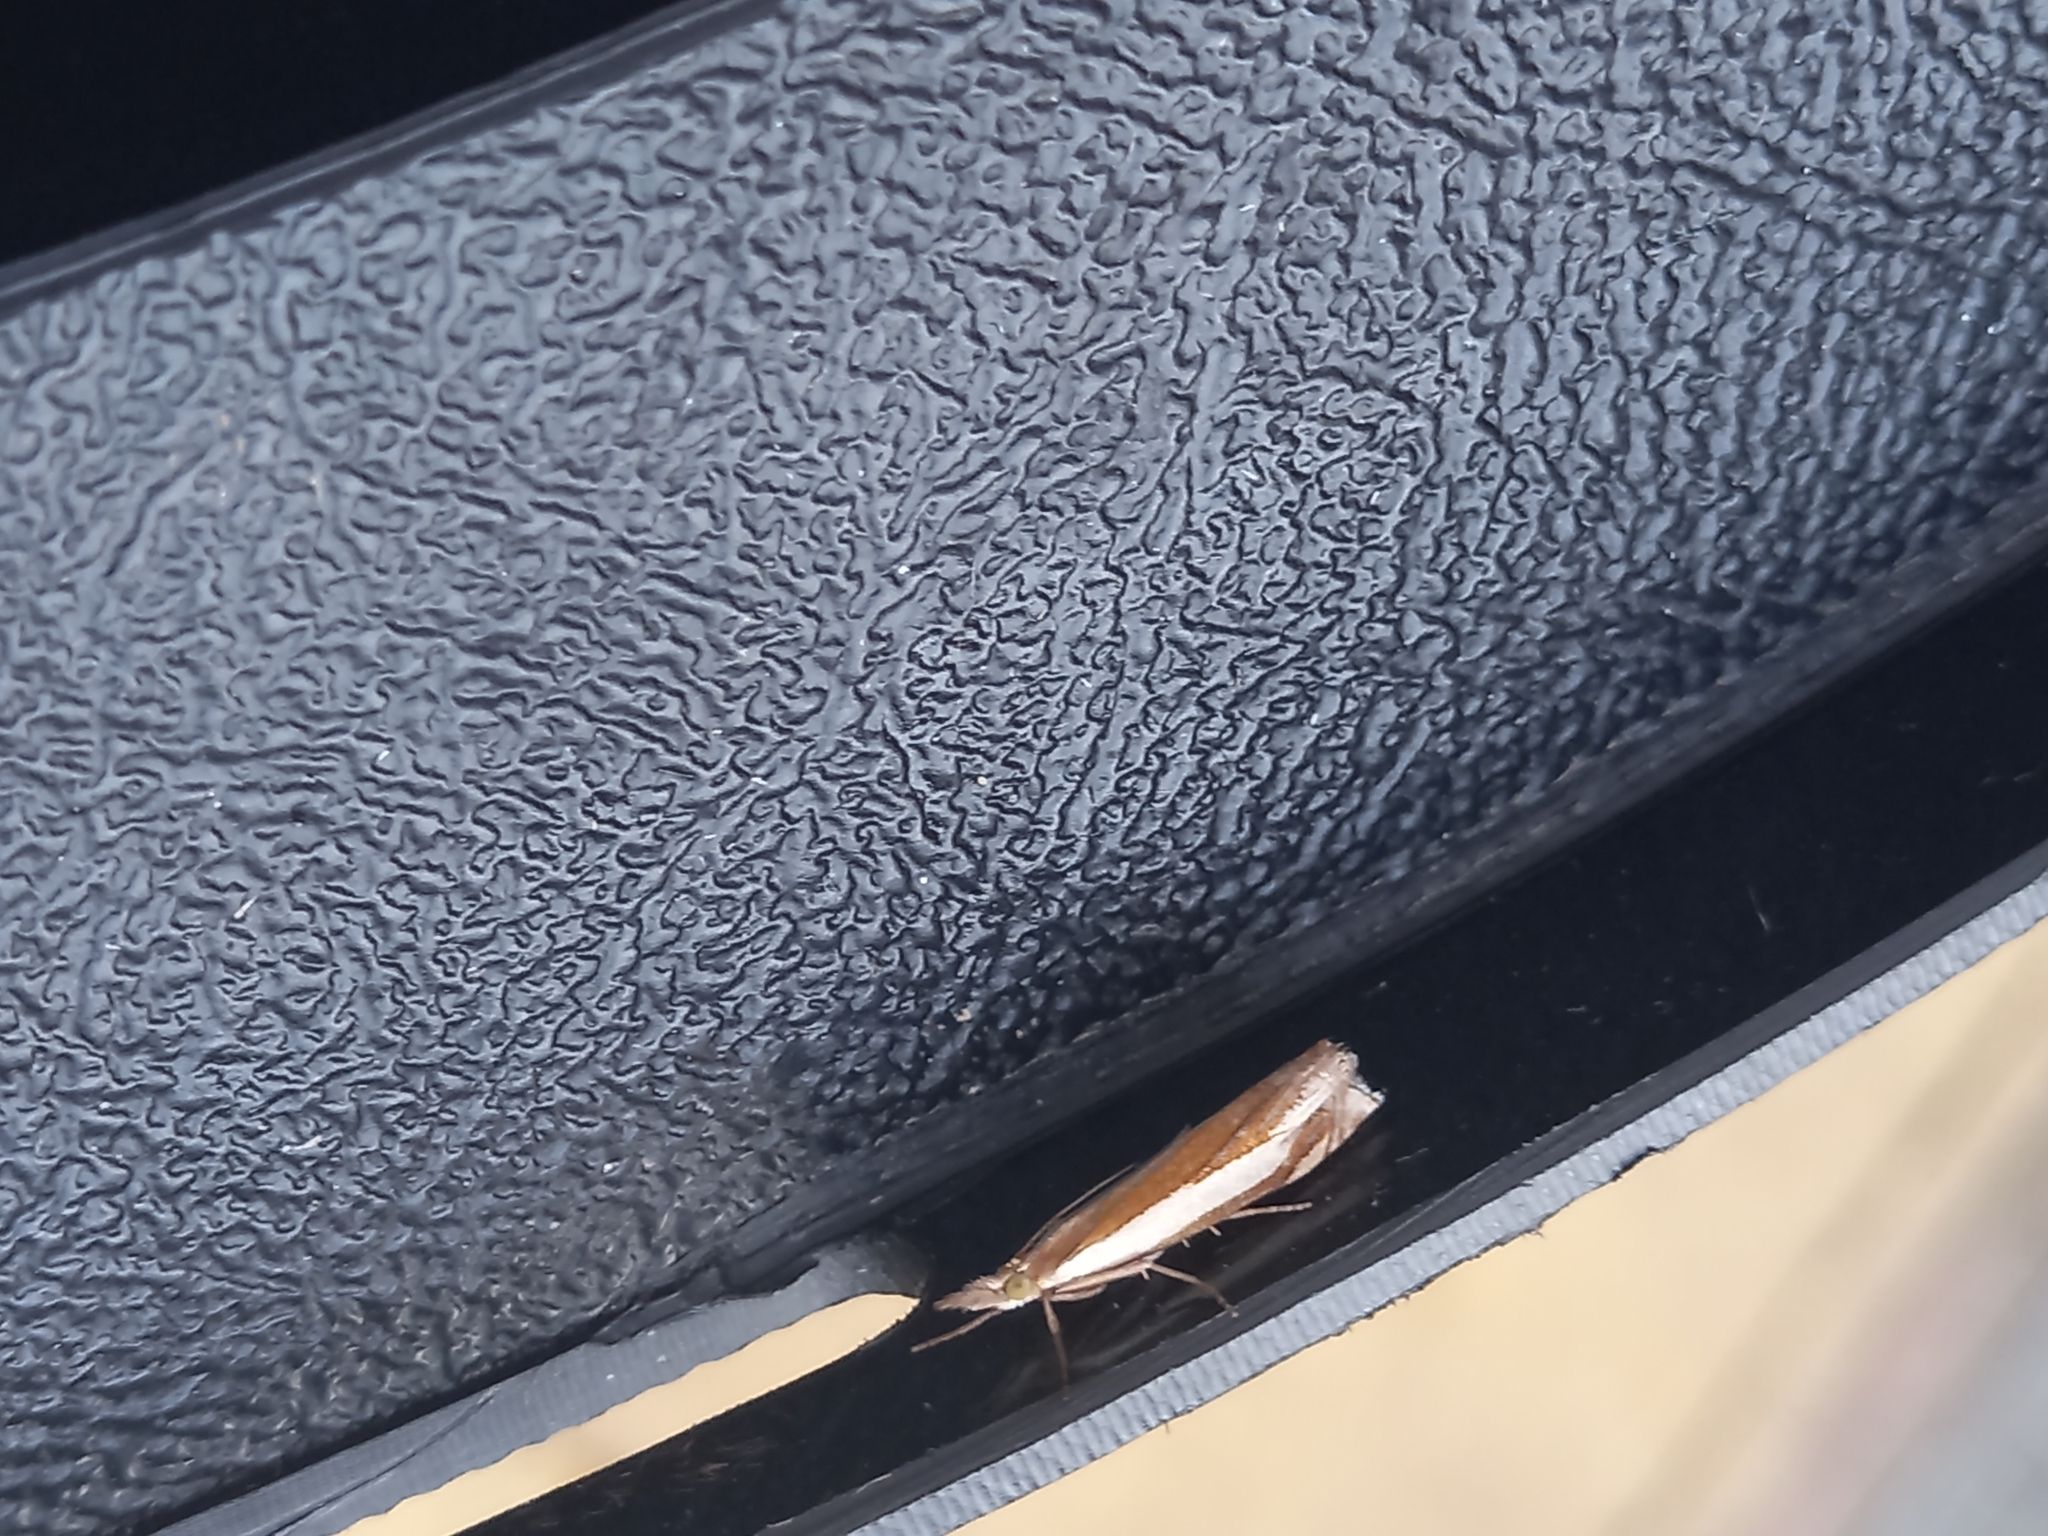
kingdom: Animalia
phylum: Arthropoda
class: Insecta
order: Lepidoptera
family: Crambidae
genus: Crambus
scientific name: Crambus pascuella
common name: Inlaid grass-veneer
